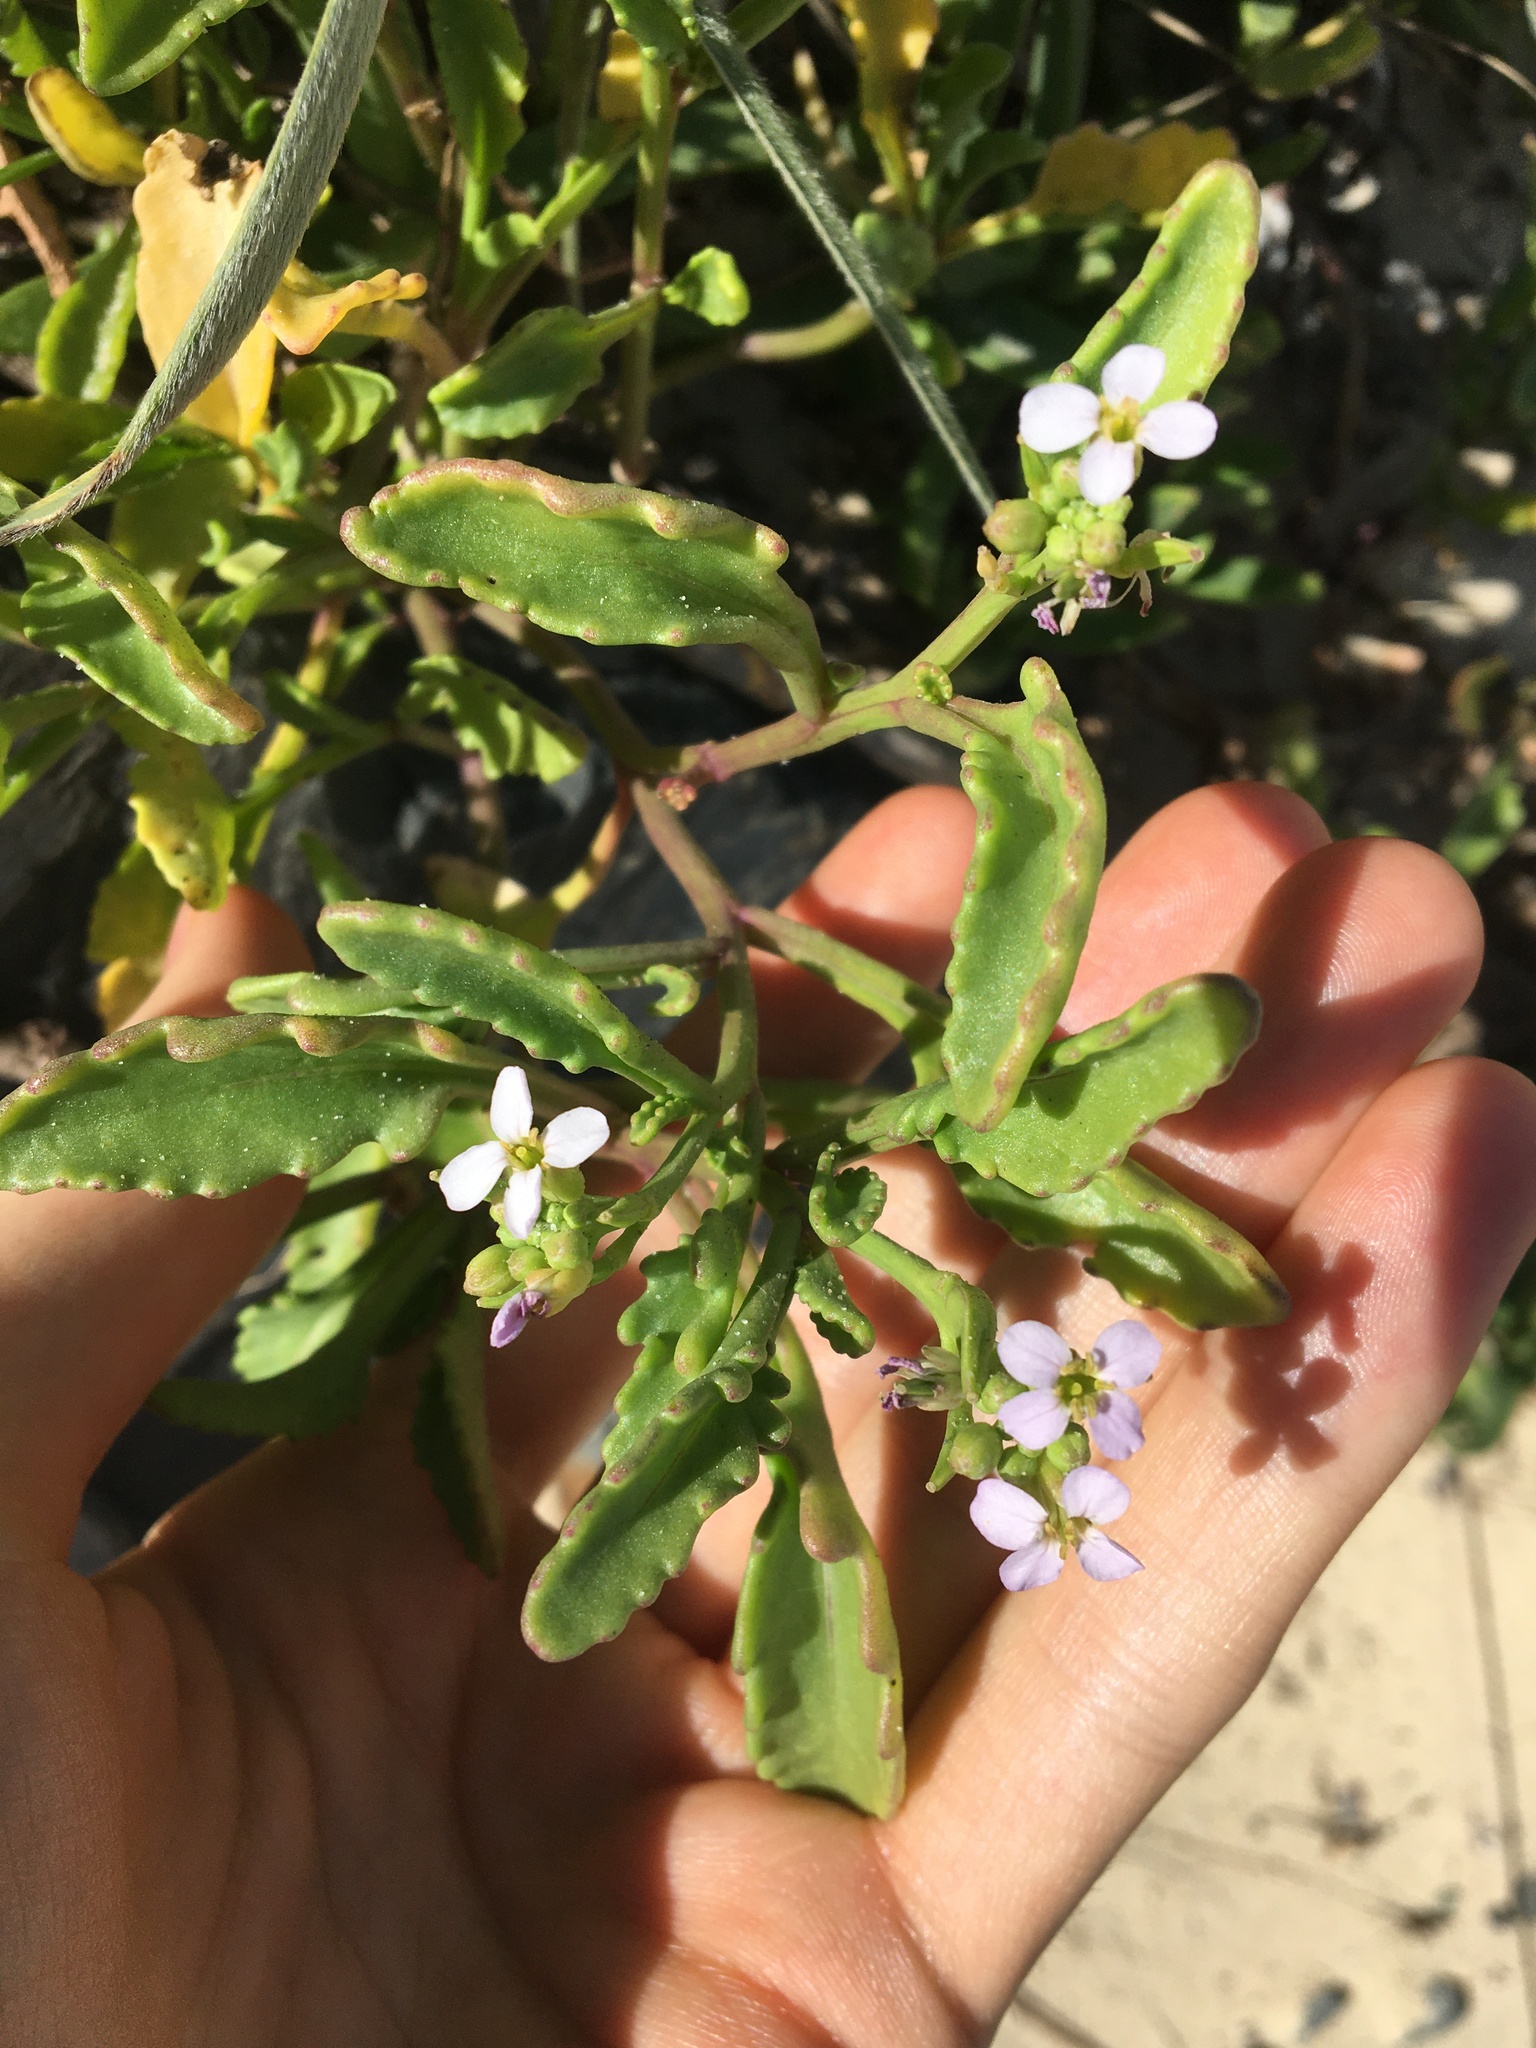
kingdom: Plantae
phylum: Tracheophyta
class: Magnoliopsida
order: Brassicales
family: Brassicaceae
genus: Cakile
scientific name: Cakile maritima
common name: Sea rocket
